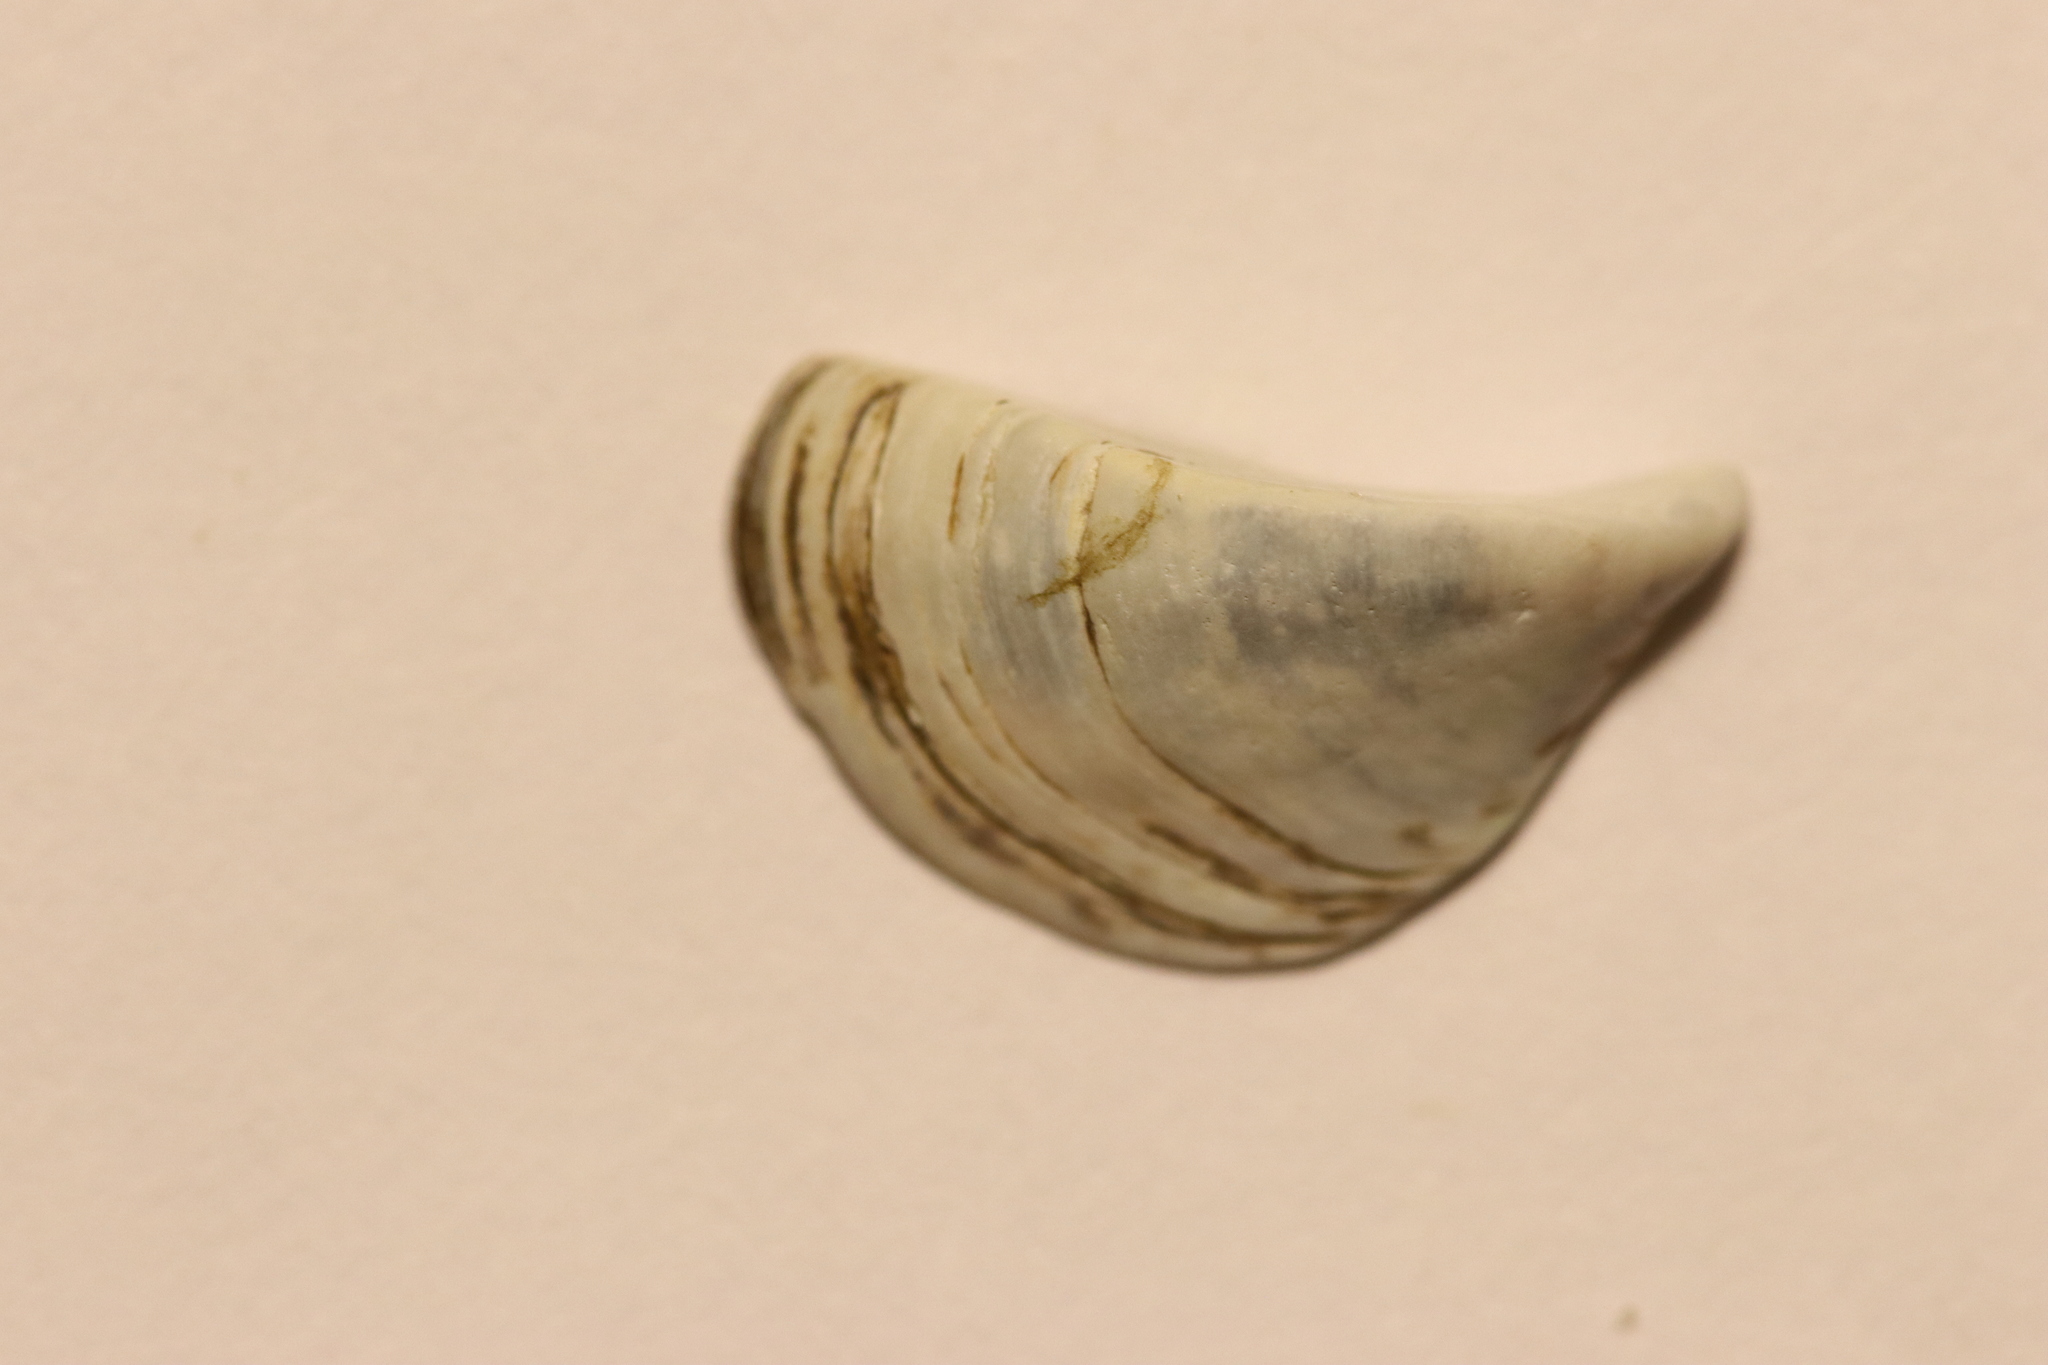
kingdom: Animalia
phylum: Mollusca
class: Bivalvia
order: Myida
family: Dreissenidae
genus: Dreissena
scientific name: Dreissena polymorpha
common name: Zebra mussel
